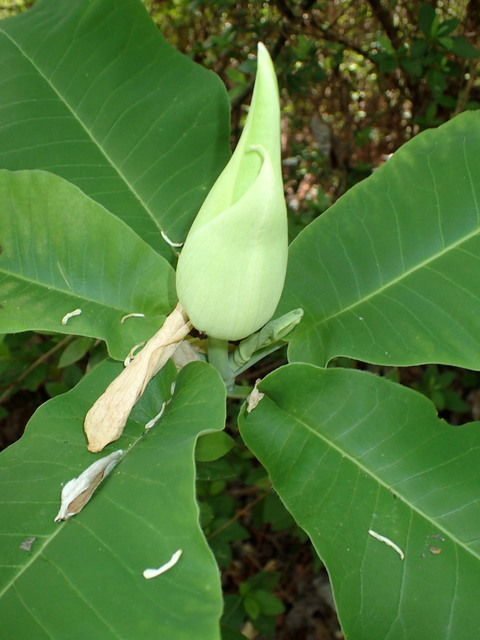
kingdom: Plantae
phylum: Tracheophyta
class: Magnoliopsida
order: Magnoliales
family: Magnoliaceae
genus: Magnolia
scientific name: Magnolia ashei
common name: Ashe's magnolia
